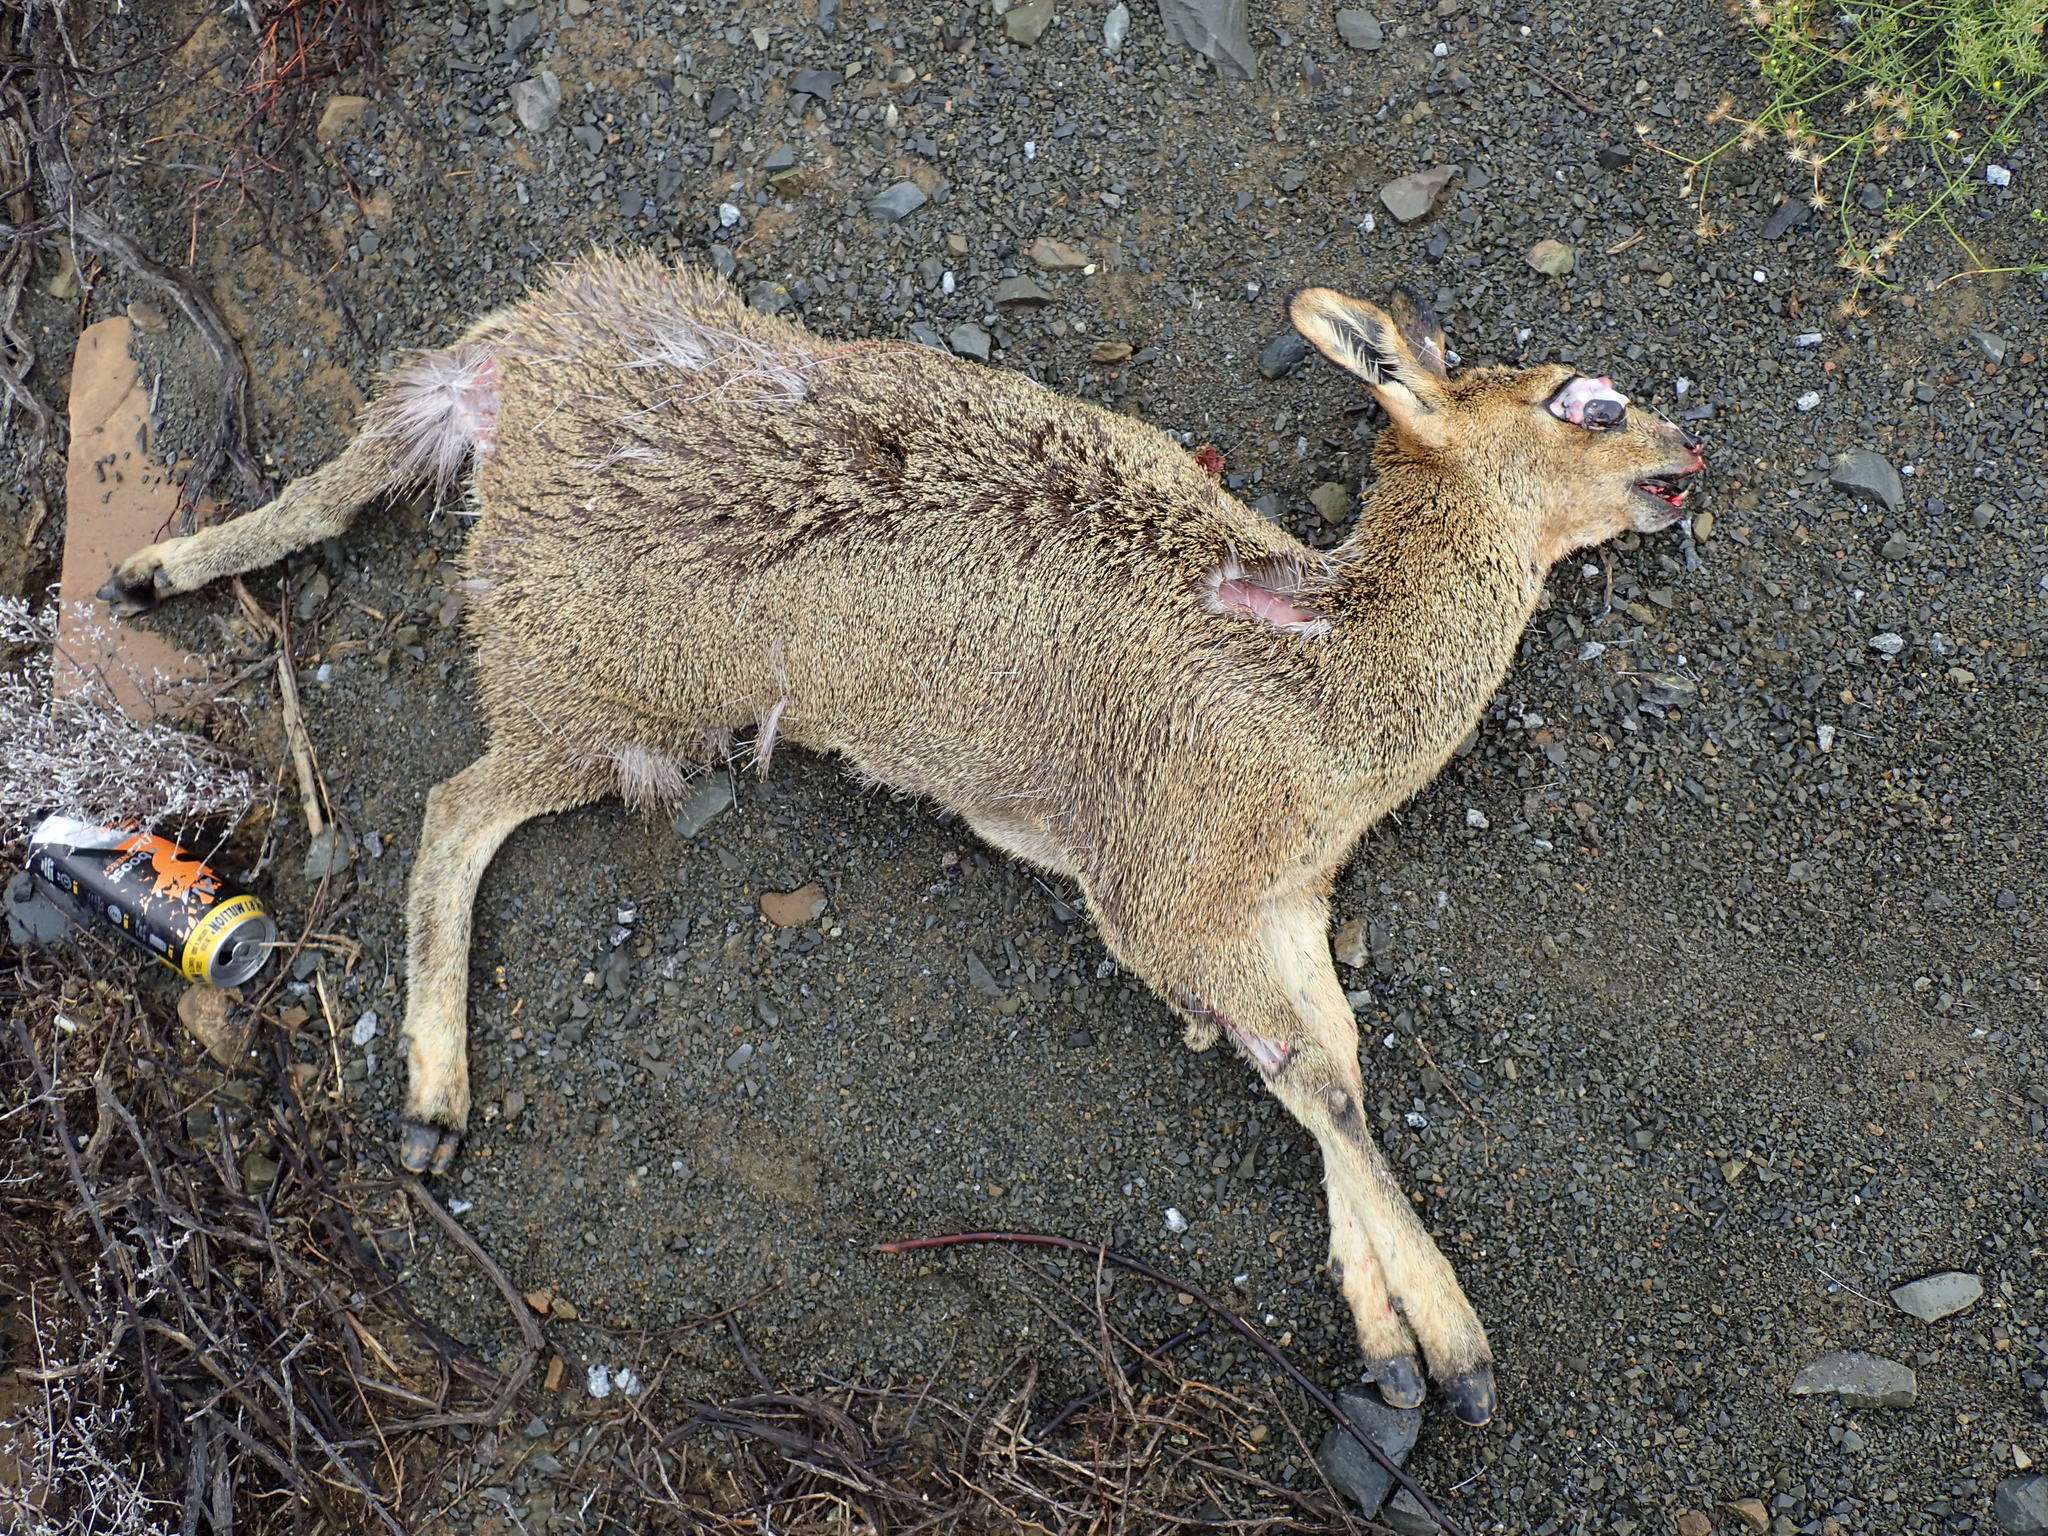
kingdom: Animalia
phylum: Chordata
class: Mammalia
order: Artiodactyla
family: Bovidae
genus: Oreotragus
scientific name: Oreotragus oreotragus
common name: Klipspringer
